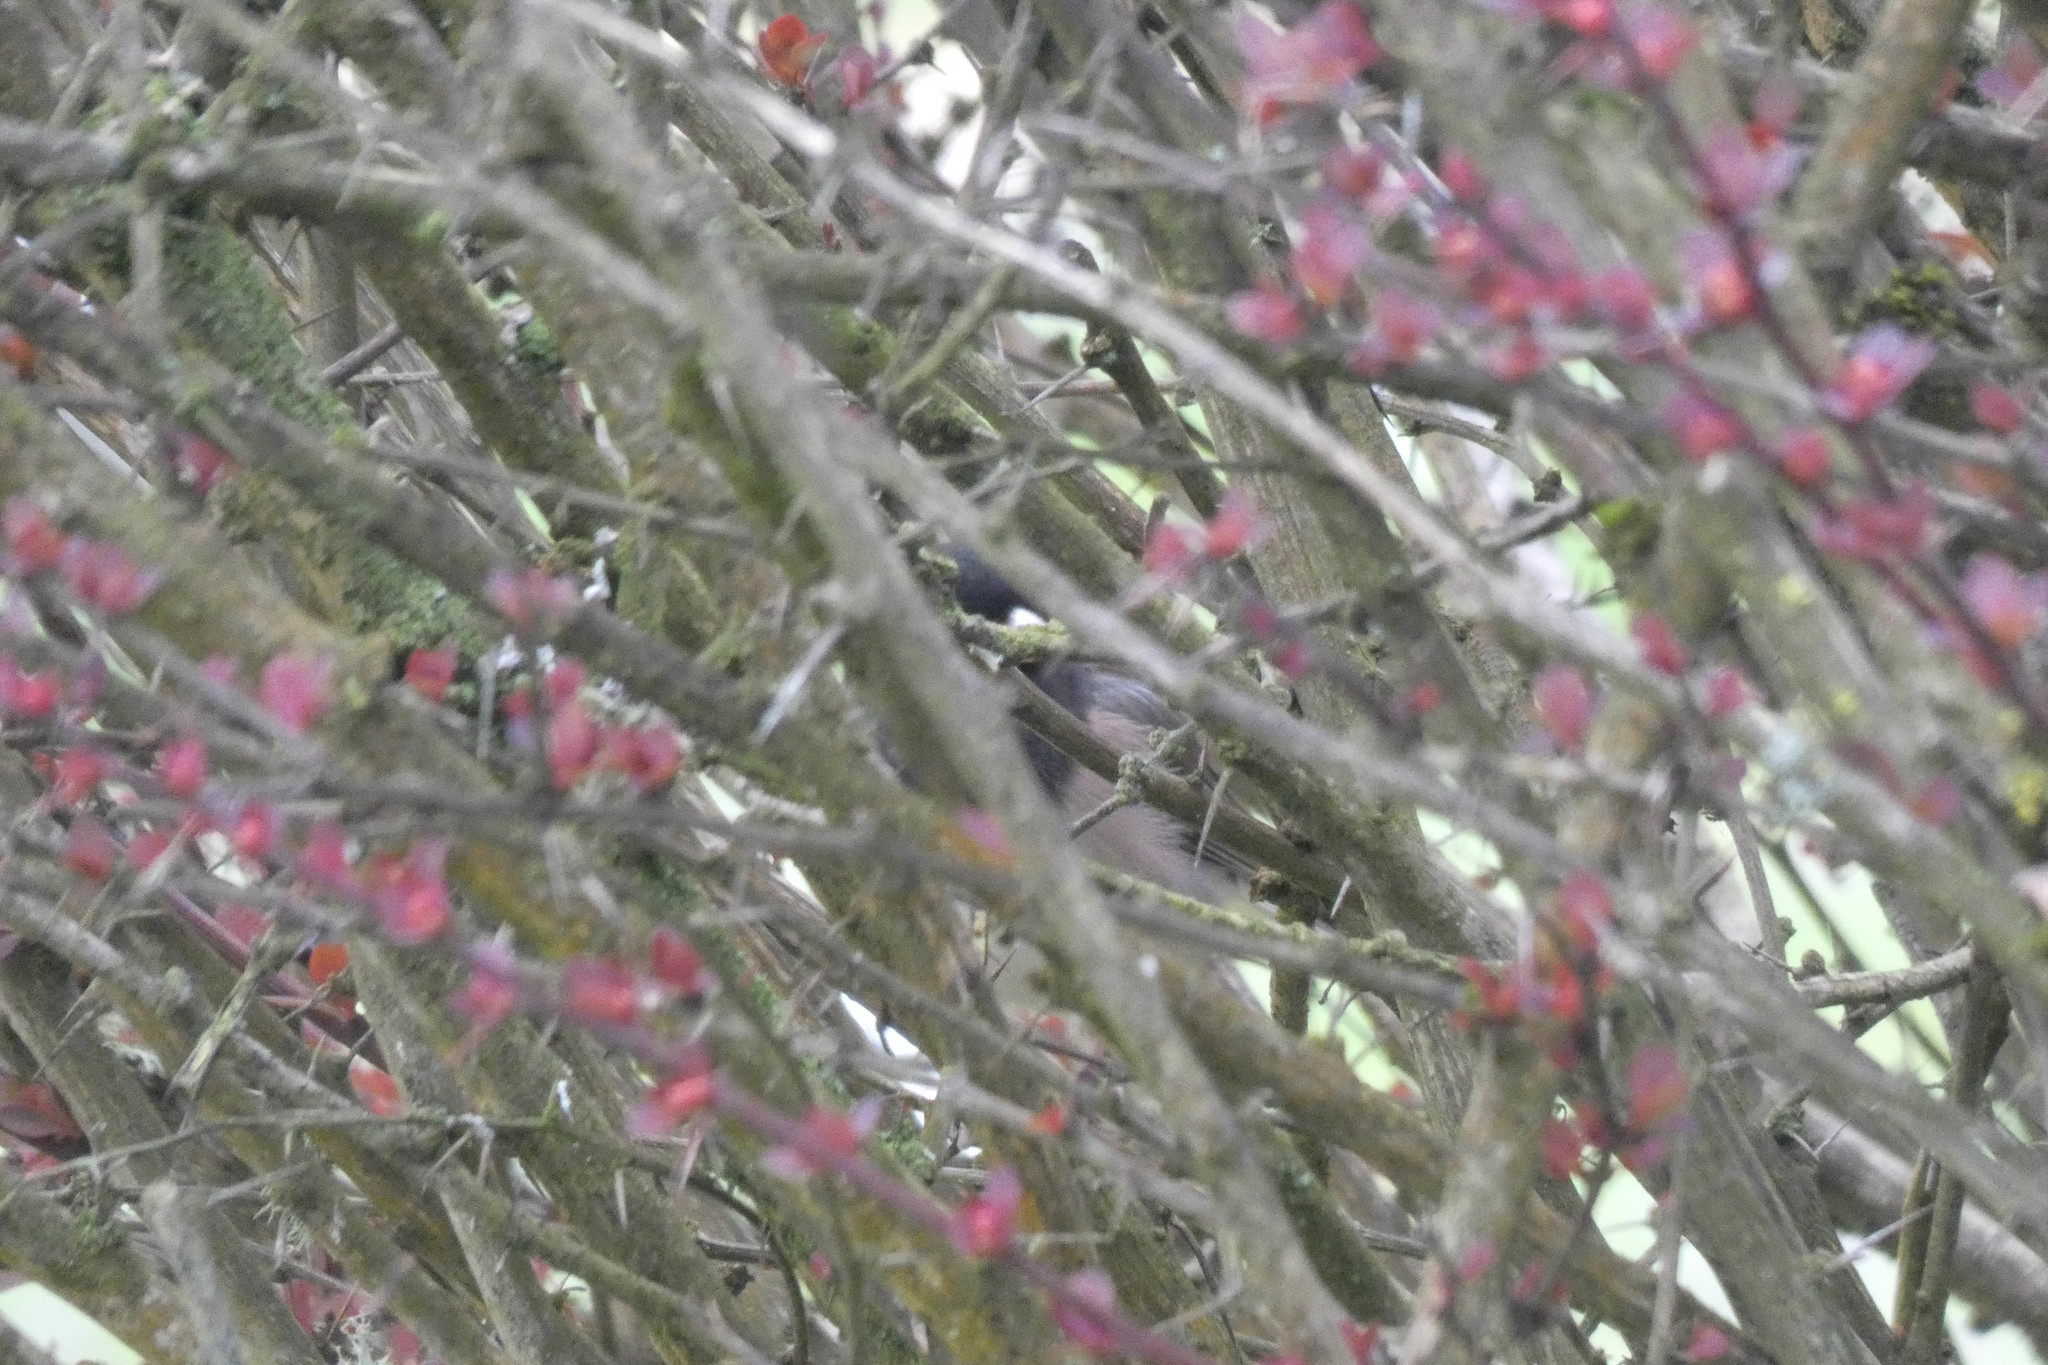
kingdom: Animalia
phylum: Chordata
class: Aves
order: Passeriformes
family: Passerellidae
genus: Junco
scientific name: Junco hyemalis
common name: Dark-eyed junco
